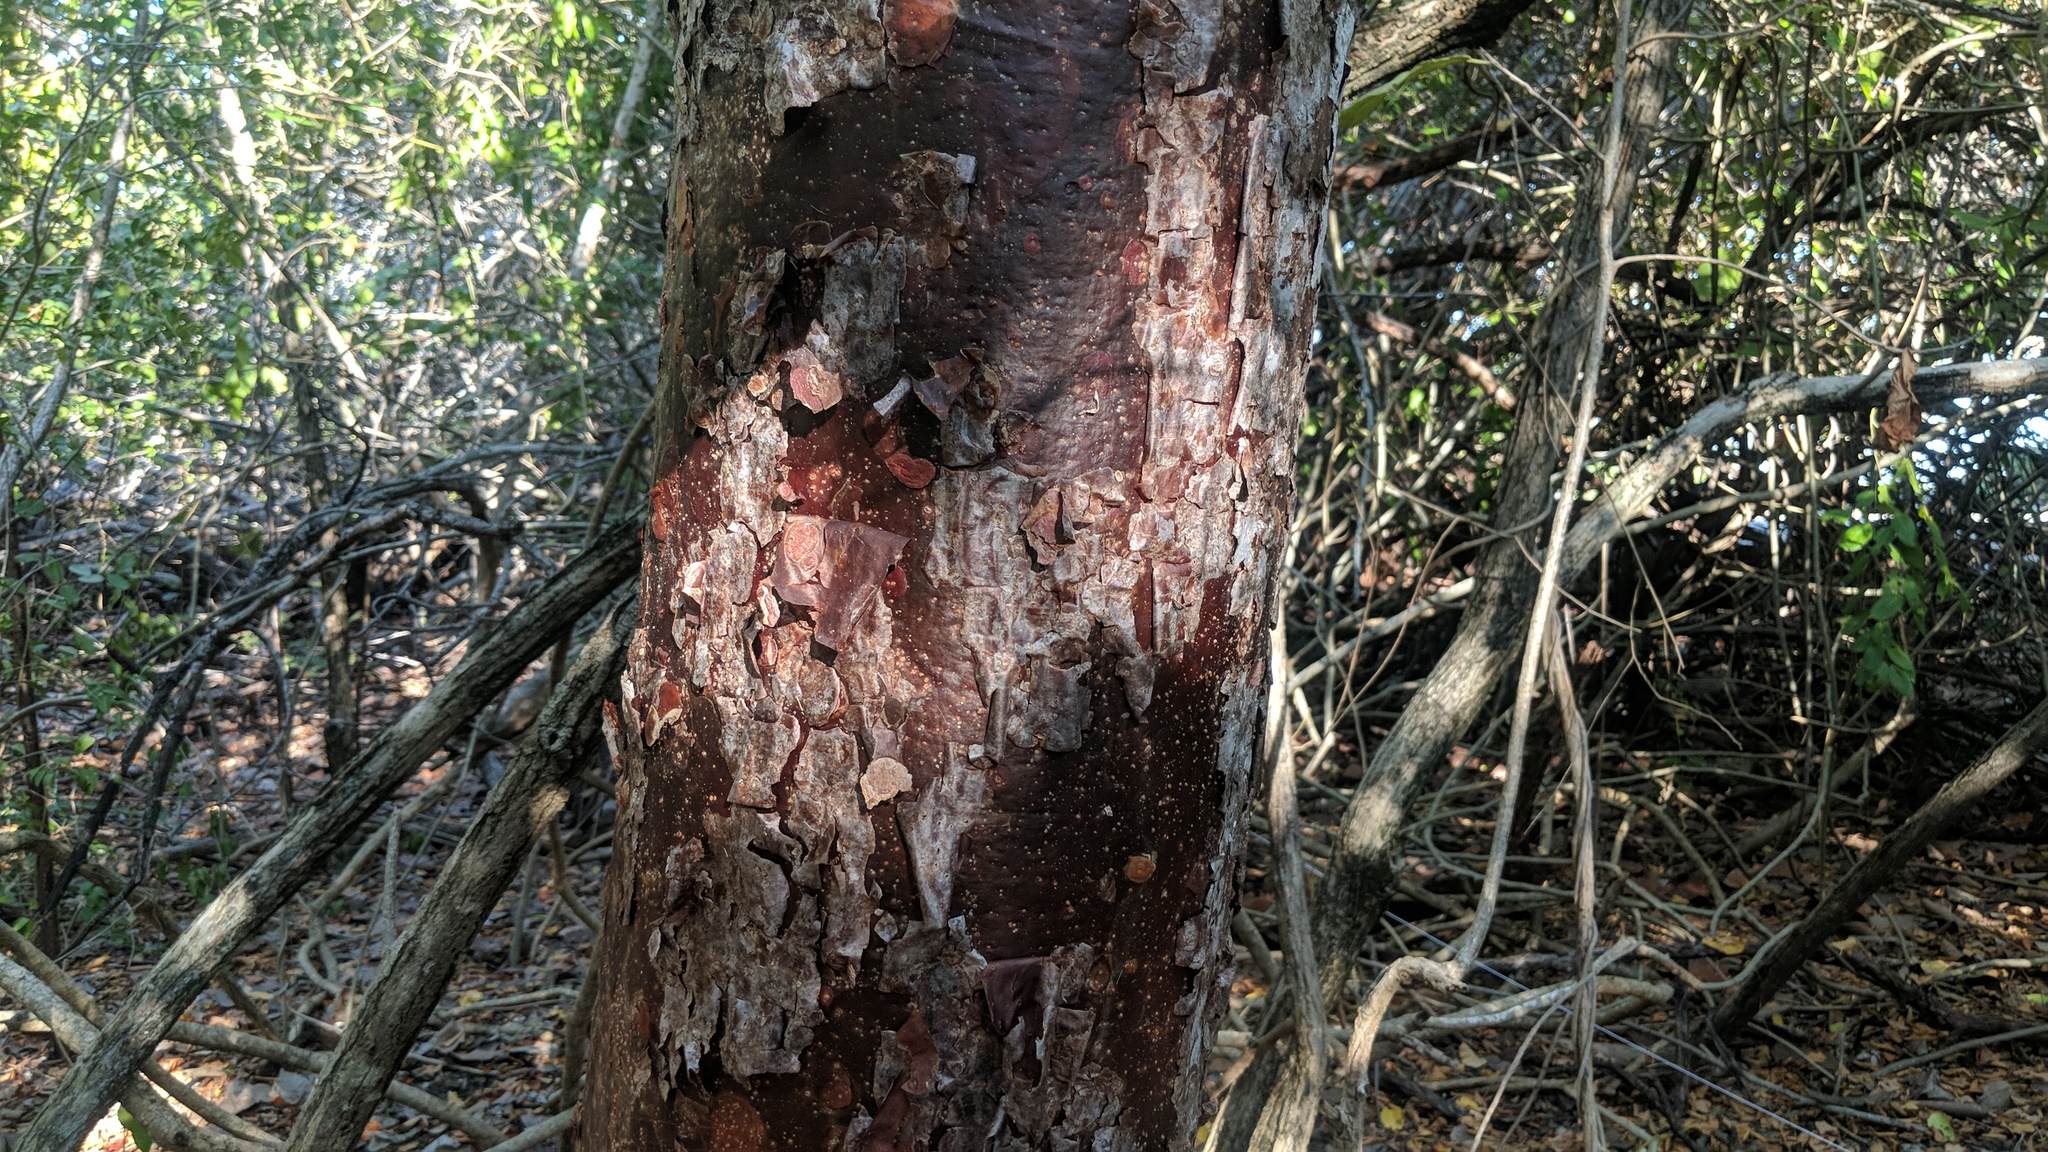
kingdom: Plantae
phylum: Tracheophyta
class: Magnoliopsida
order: Sapindales
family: Burseraceae
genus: Bursera
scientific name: Bursera simaruba
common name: Turpentine tree
